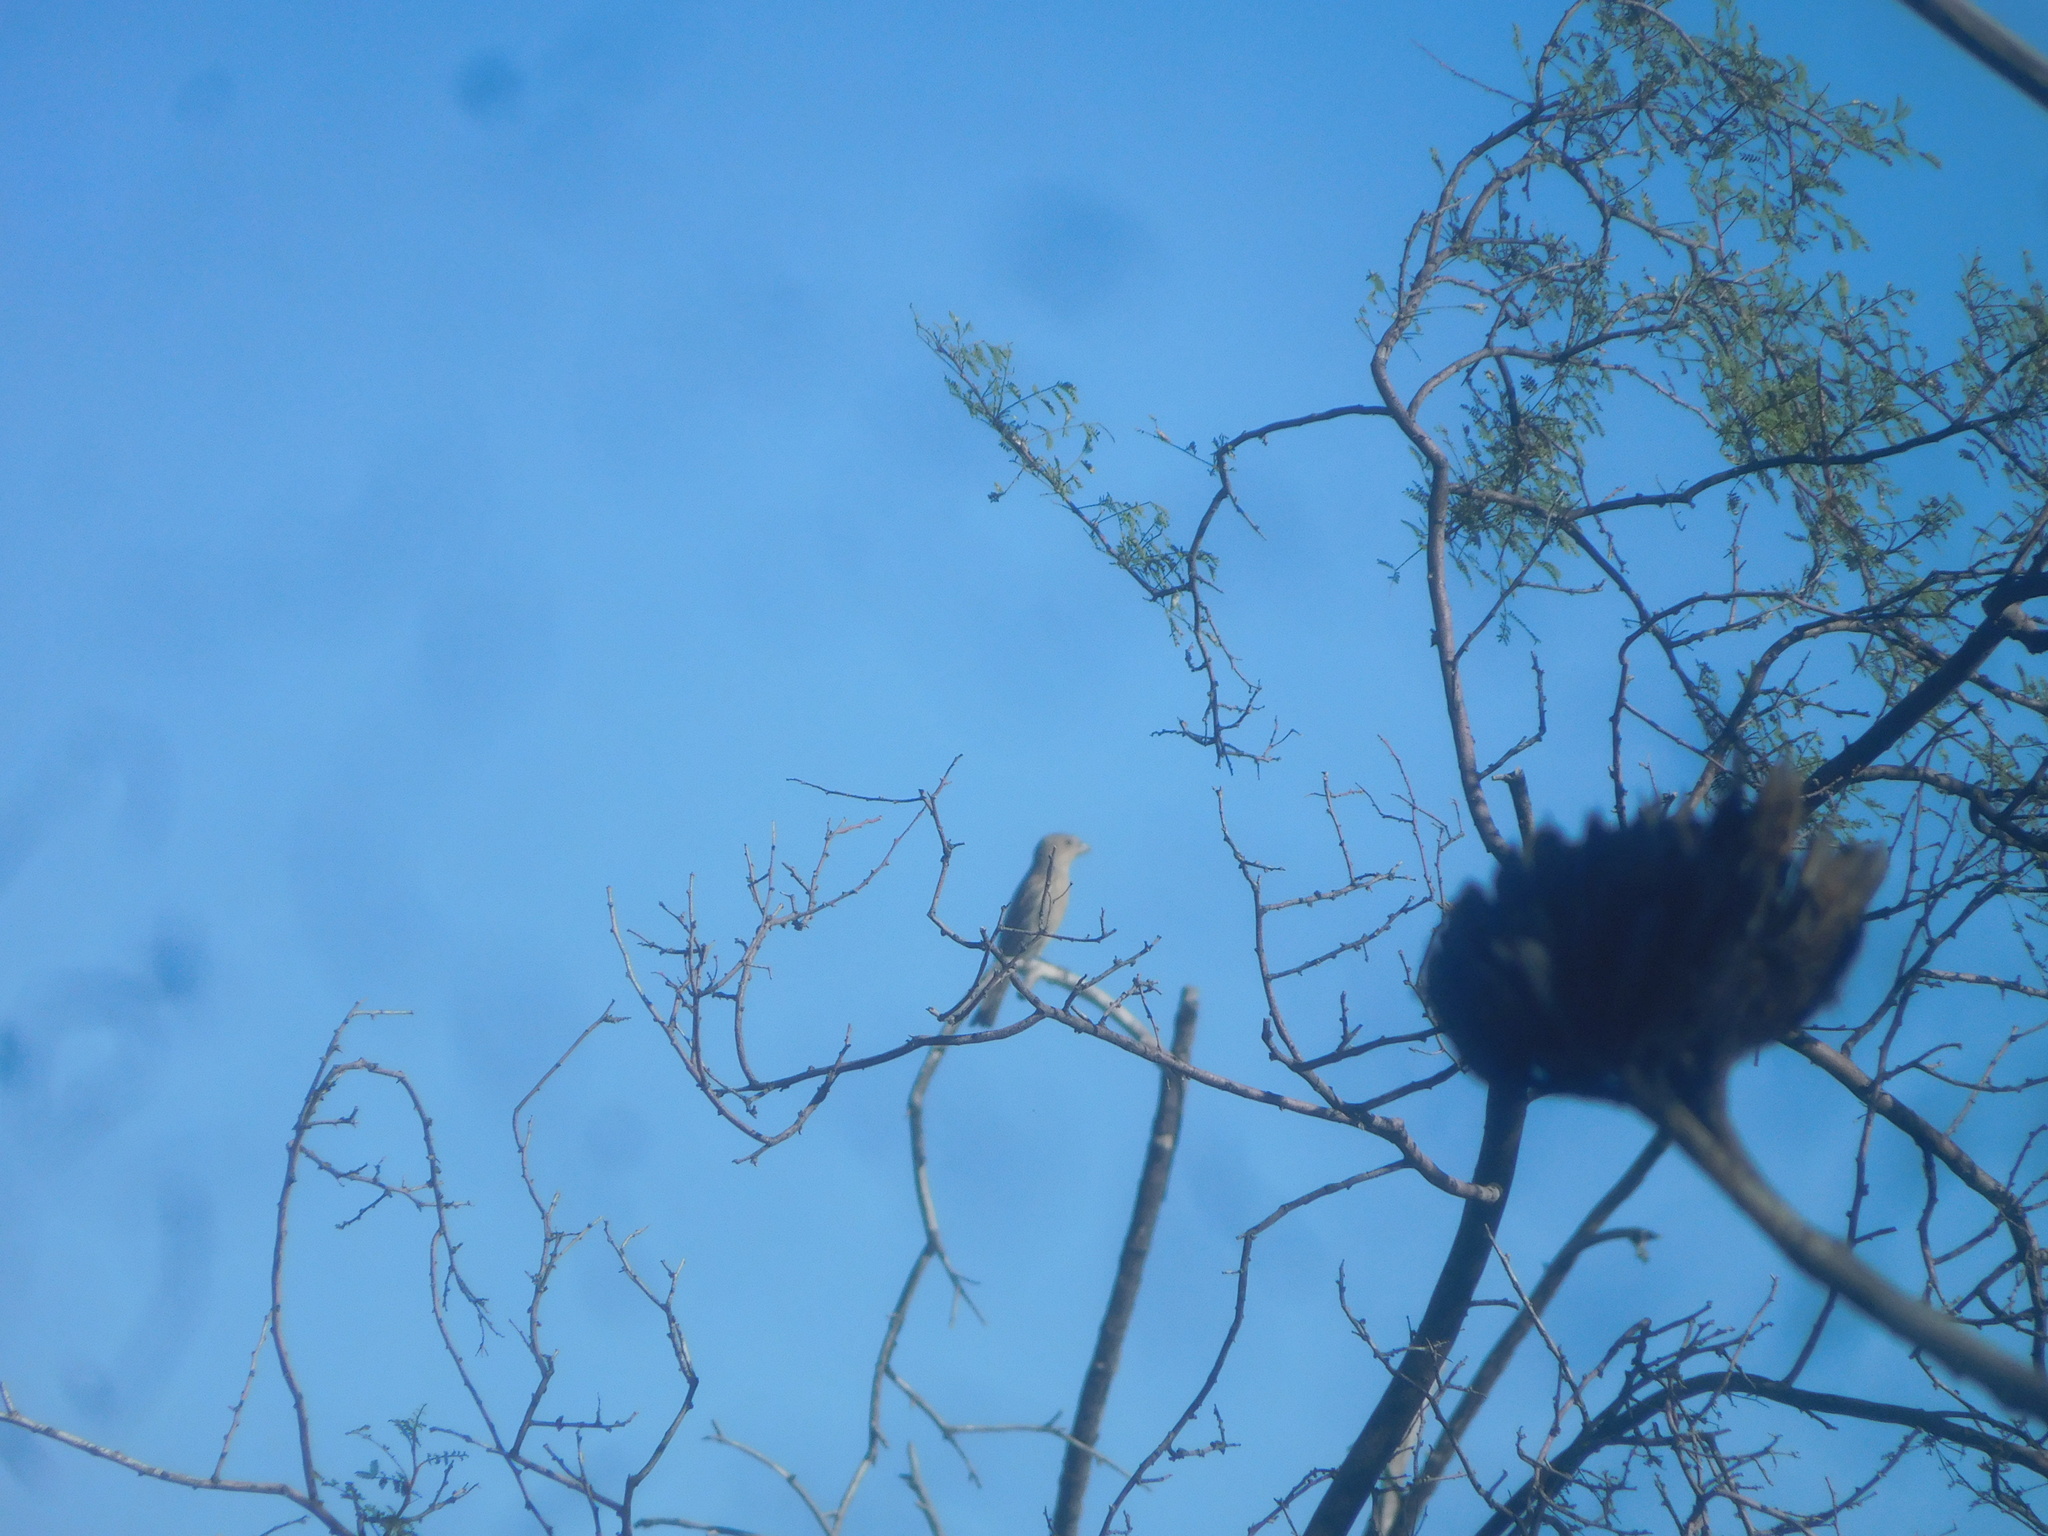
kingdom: Animalia
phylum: Chordata
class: Aves
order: Passeriformes
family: Fringillidae
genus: Haemorhous
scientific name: Haemorhous mexicanus
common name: House finch
